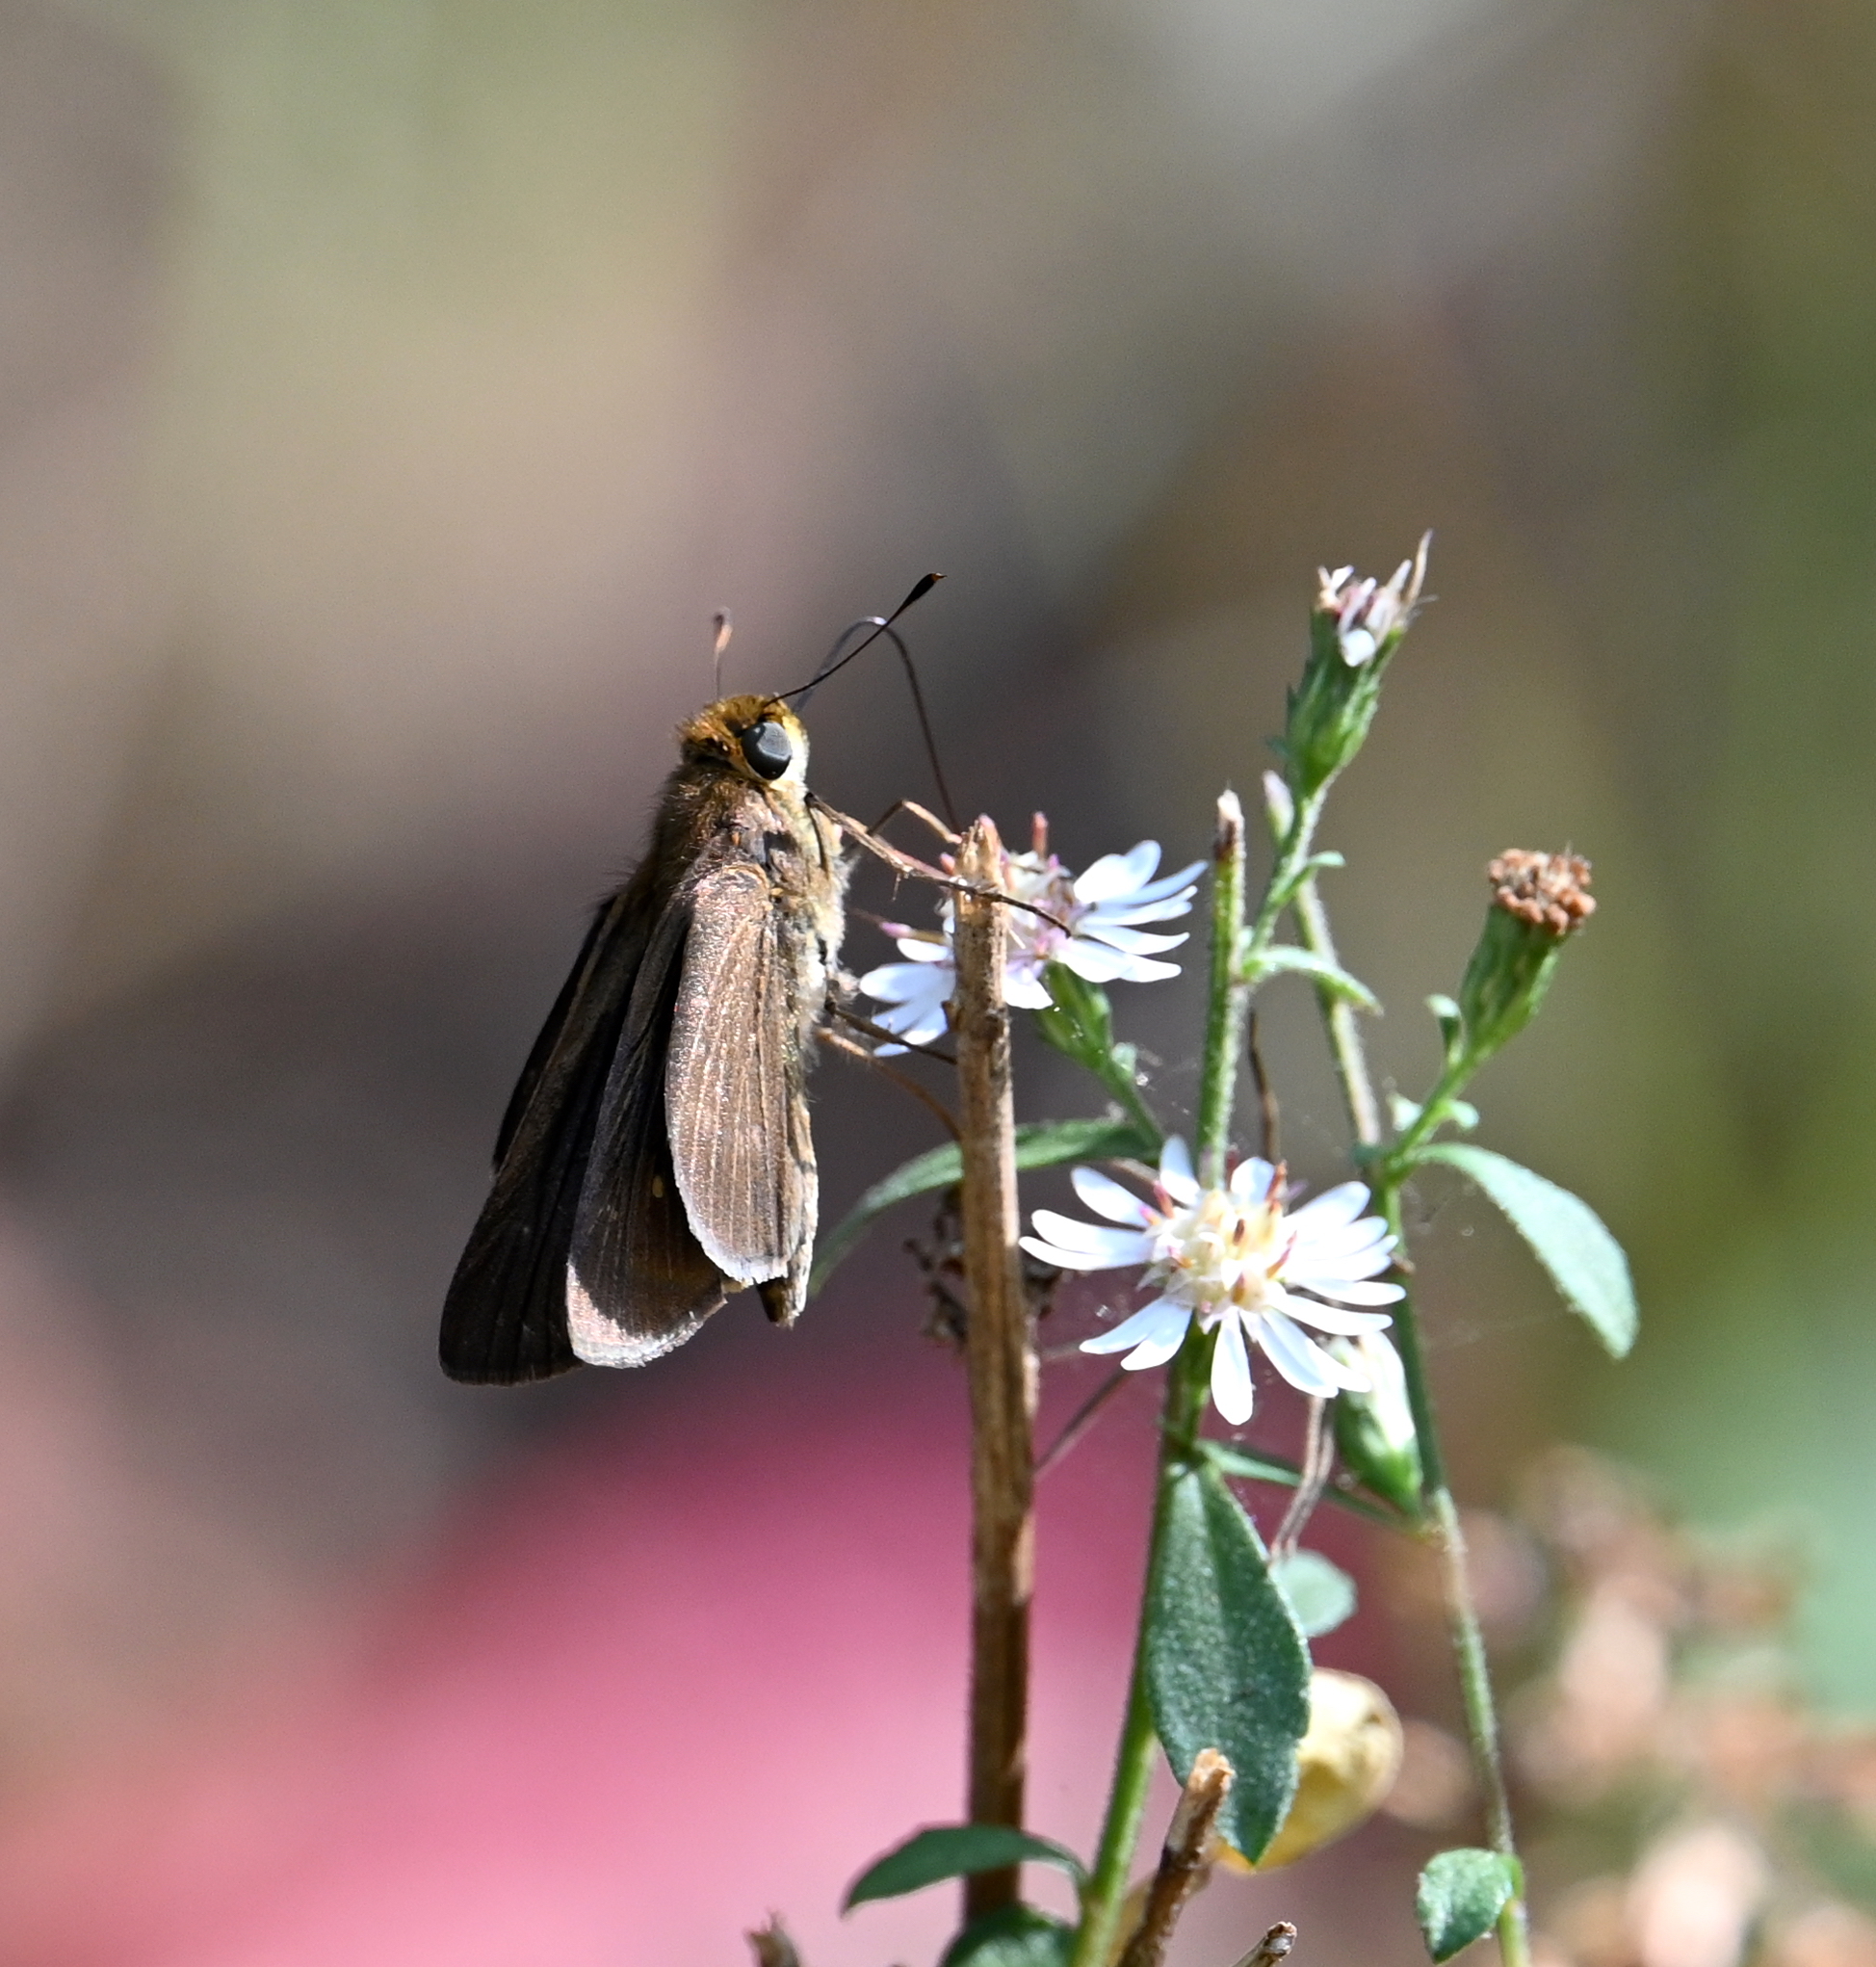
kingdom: Animalia
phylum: Arthropoda
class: Insecta
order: Lepidoptera
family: Hesperiidae
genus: Panoquina
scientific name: Panoquina ocola
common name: Ocola skipper
